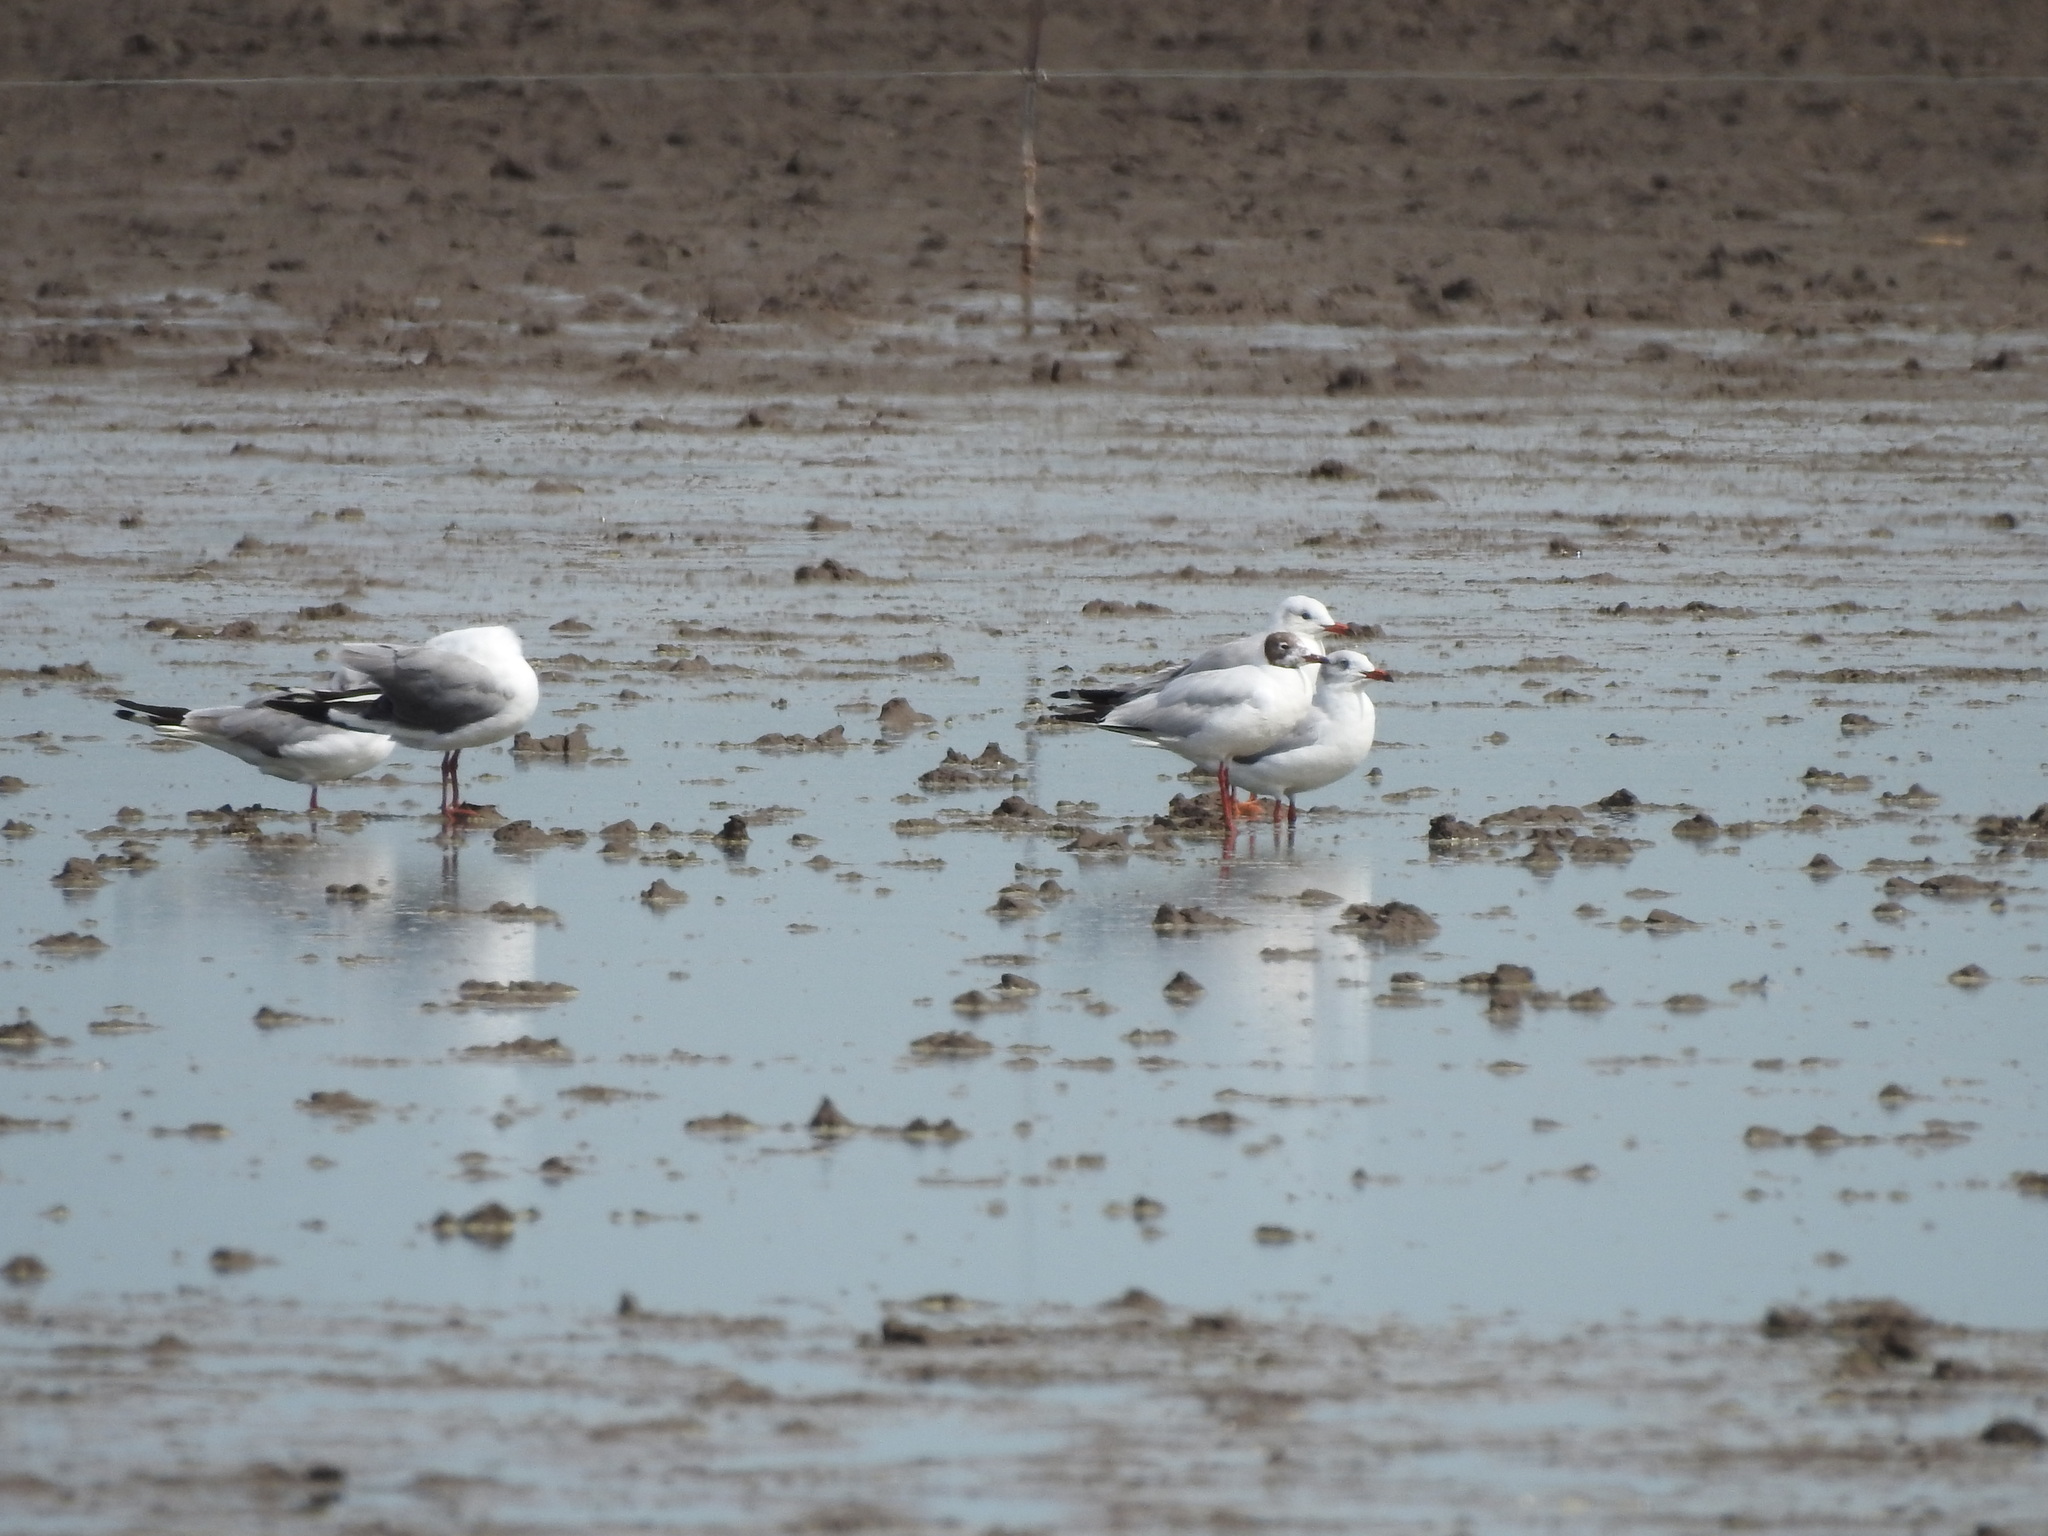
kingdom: Animalia
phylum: Chordata
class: Aves
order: Charadriiformes
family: Laridae
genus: Chroicocephalus
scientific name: Chroicocephalus maculipennis
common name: Brown-hooded gull
